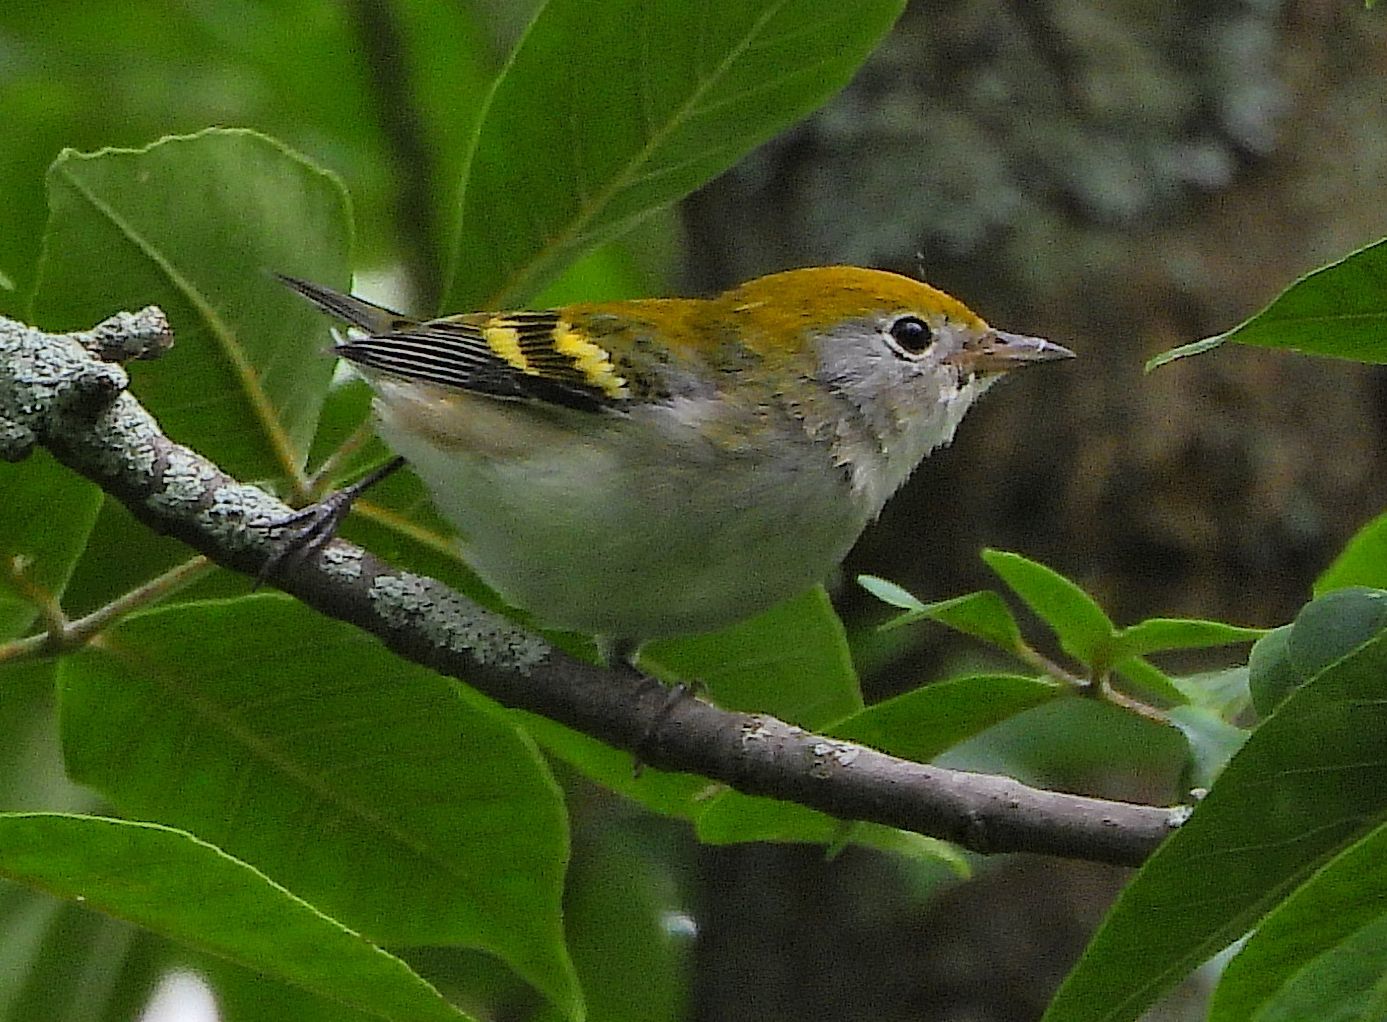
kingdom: Animalia
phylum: Chordata
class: Aves
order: Passeriformes
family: Parulidae
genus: Setophaga
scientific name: Setophaga pensylvanica
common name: Chestnut-sided warbler
